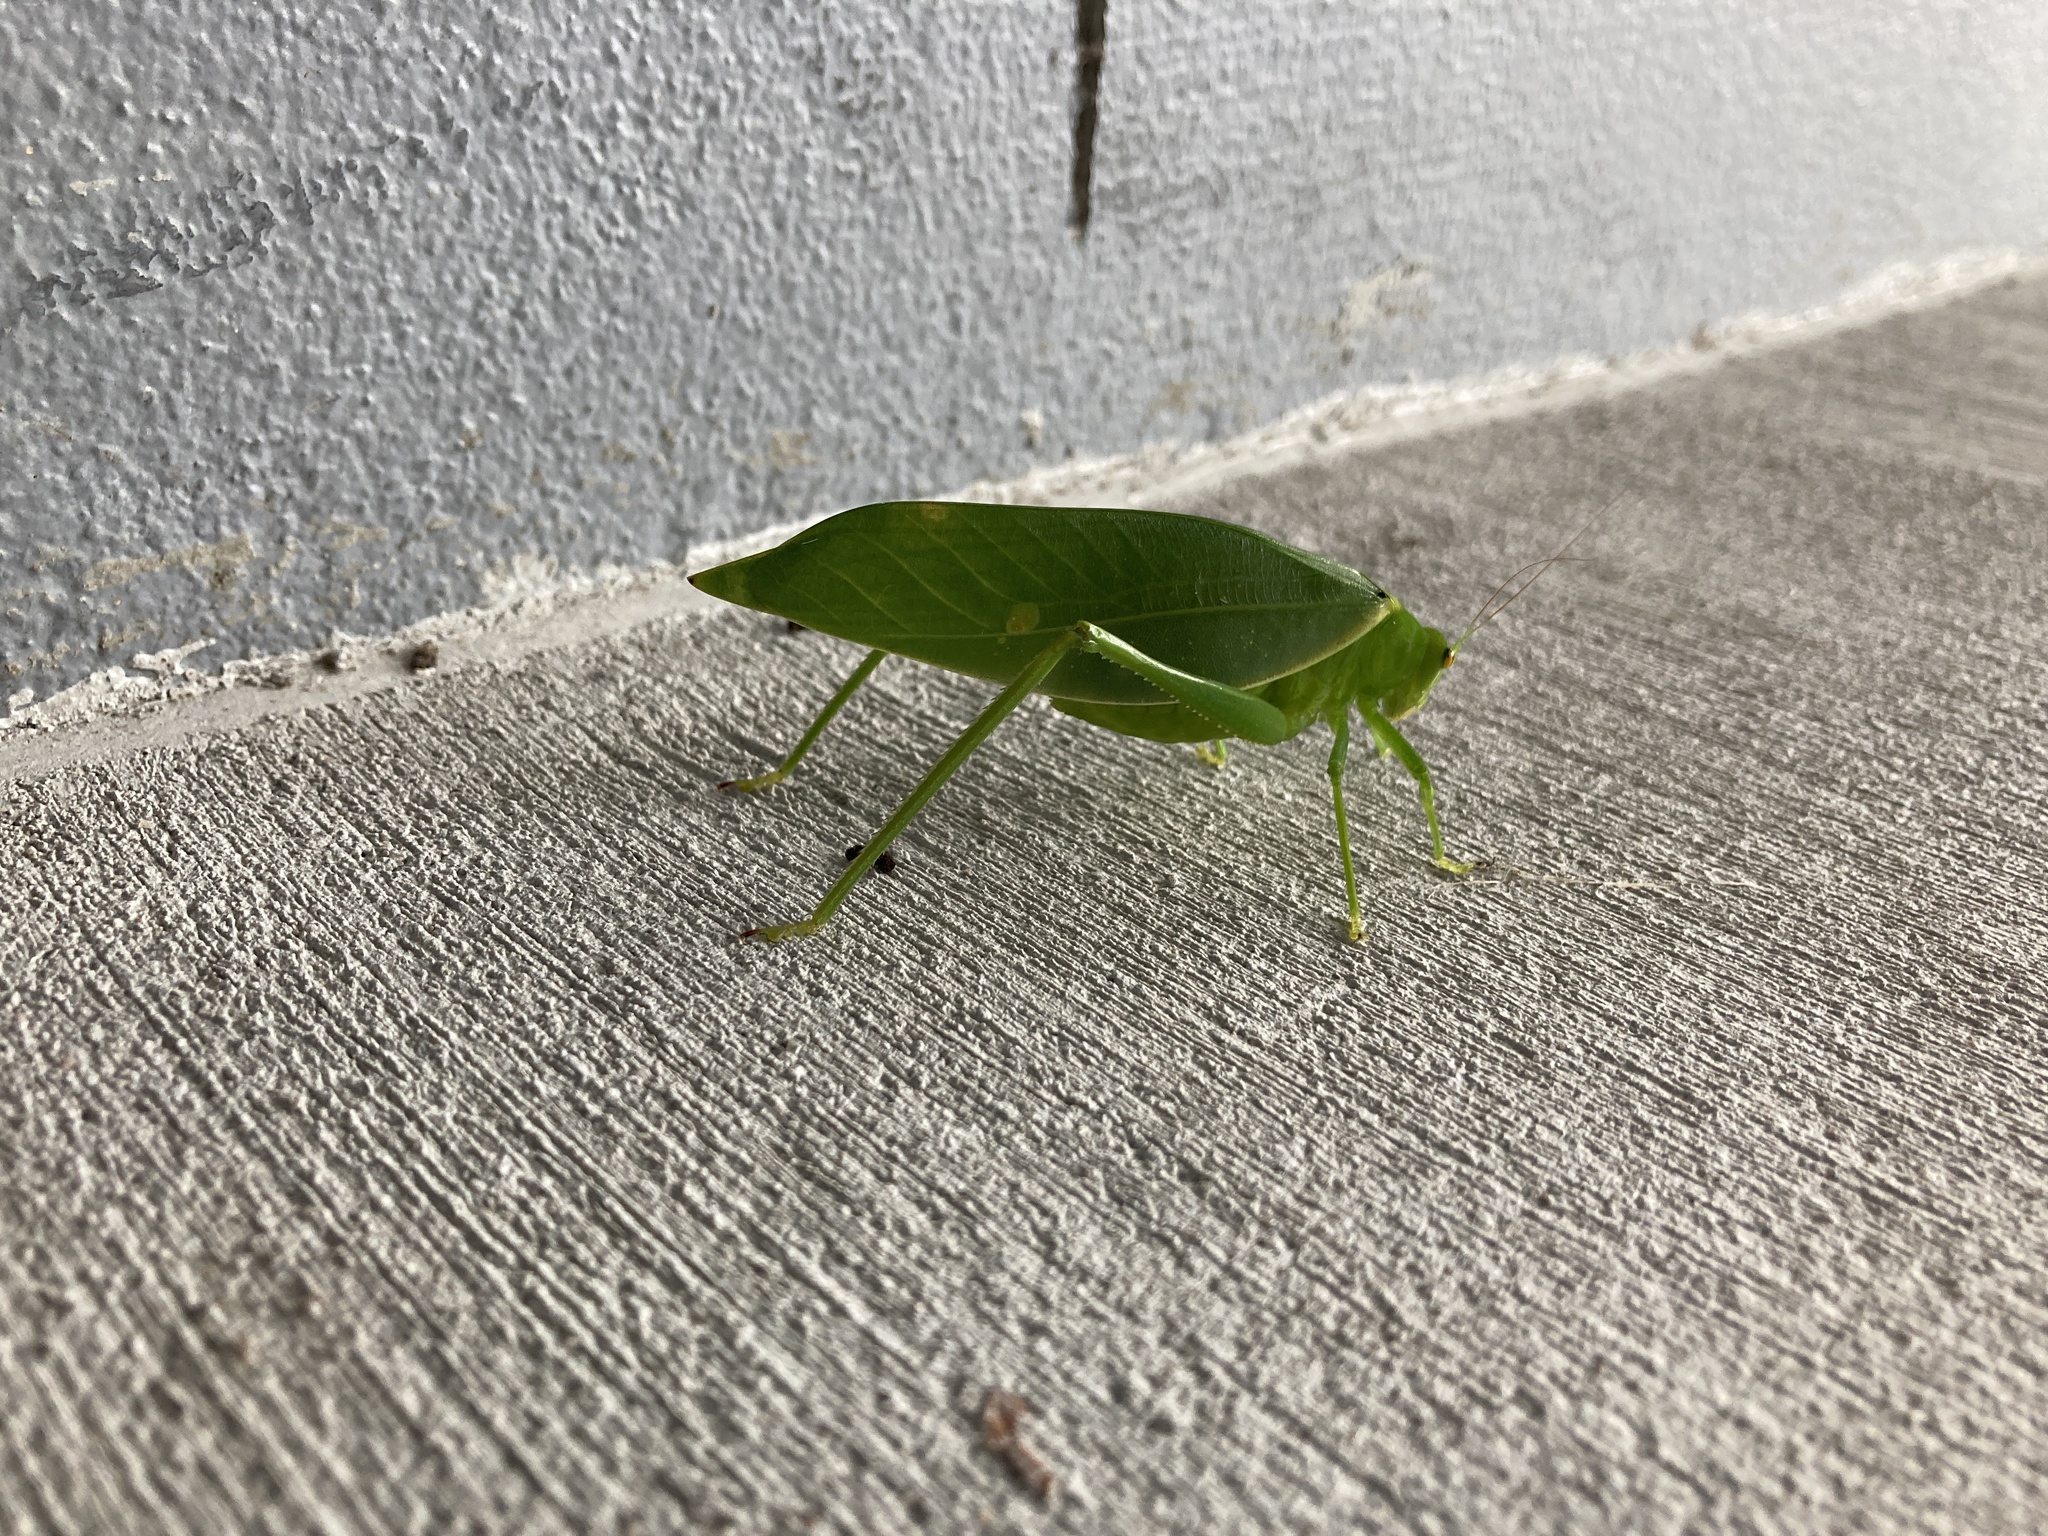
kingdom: Animalia
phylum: Arthropoda
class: Insecta
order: Orthoptera
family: Tettigoniidae
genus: Paracaedicia
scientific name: Paracaedicia serrata
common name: Serrated bush katydid
